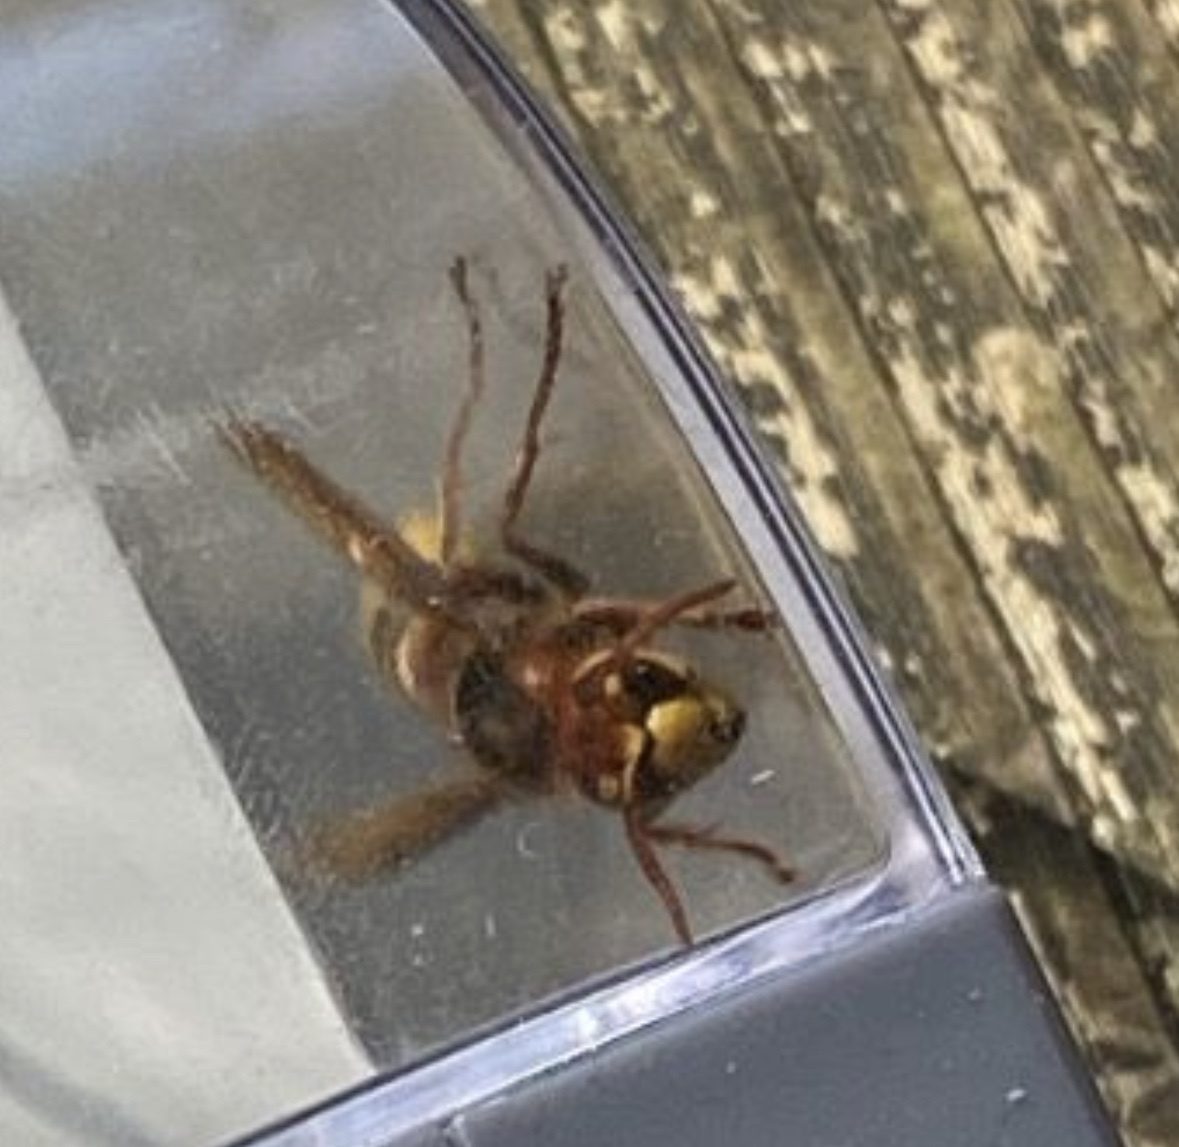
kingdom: Animalia
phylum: Arthropoda
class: Insecta
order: Hymenoptera
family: Vespidae
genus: Vespa
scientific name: Vespa crabro
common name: Hornet
